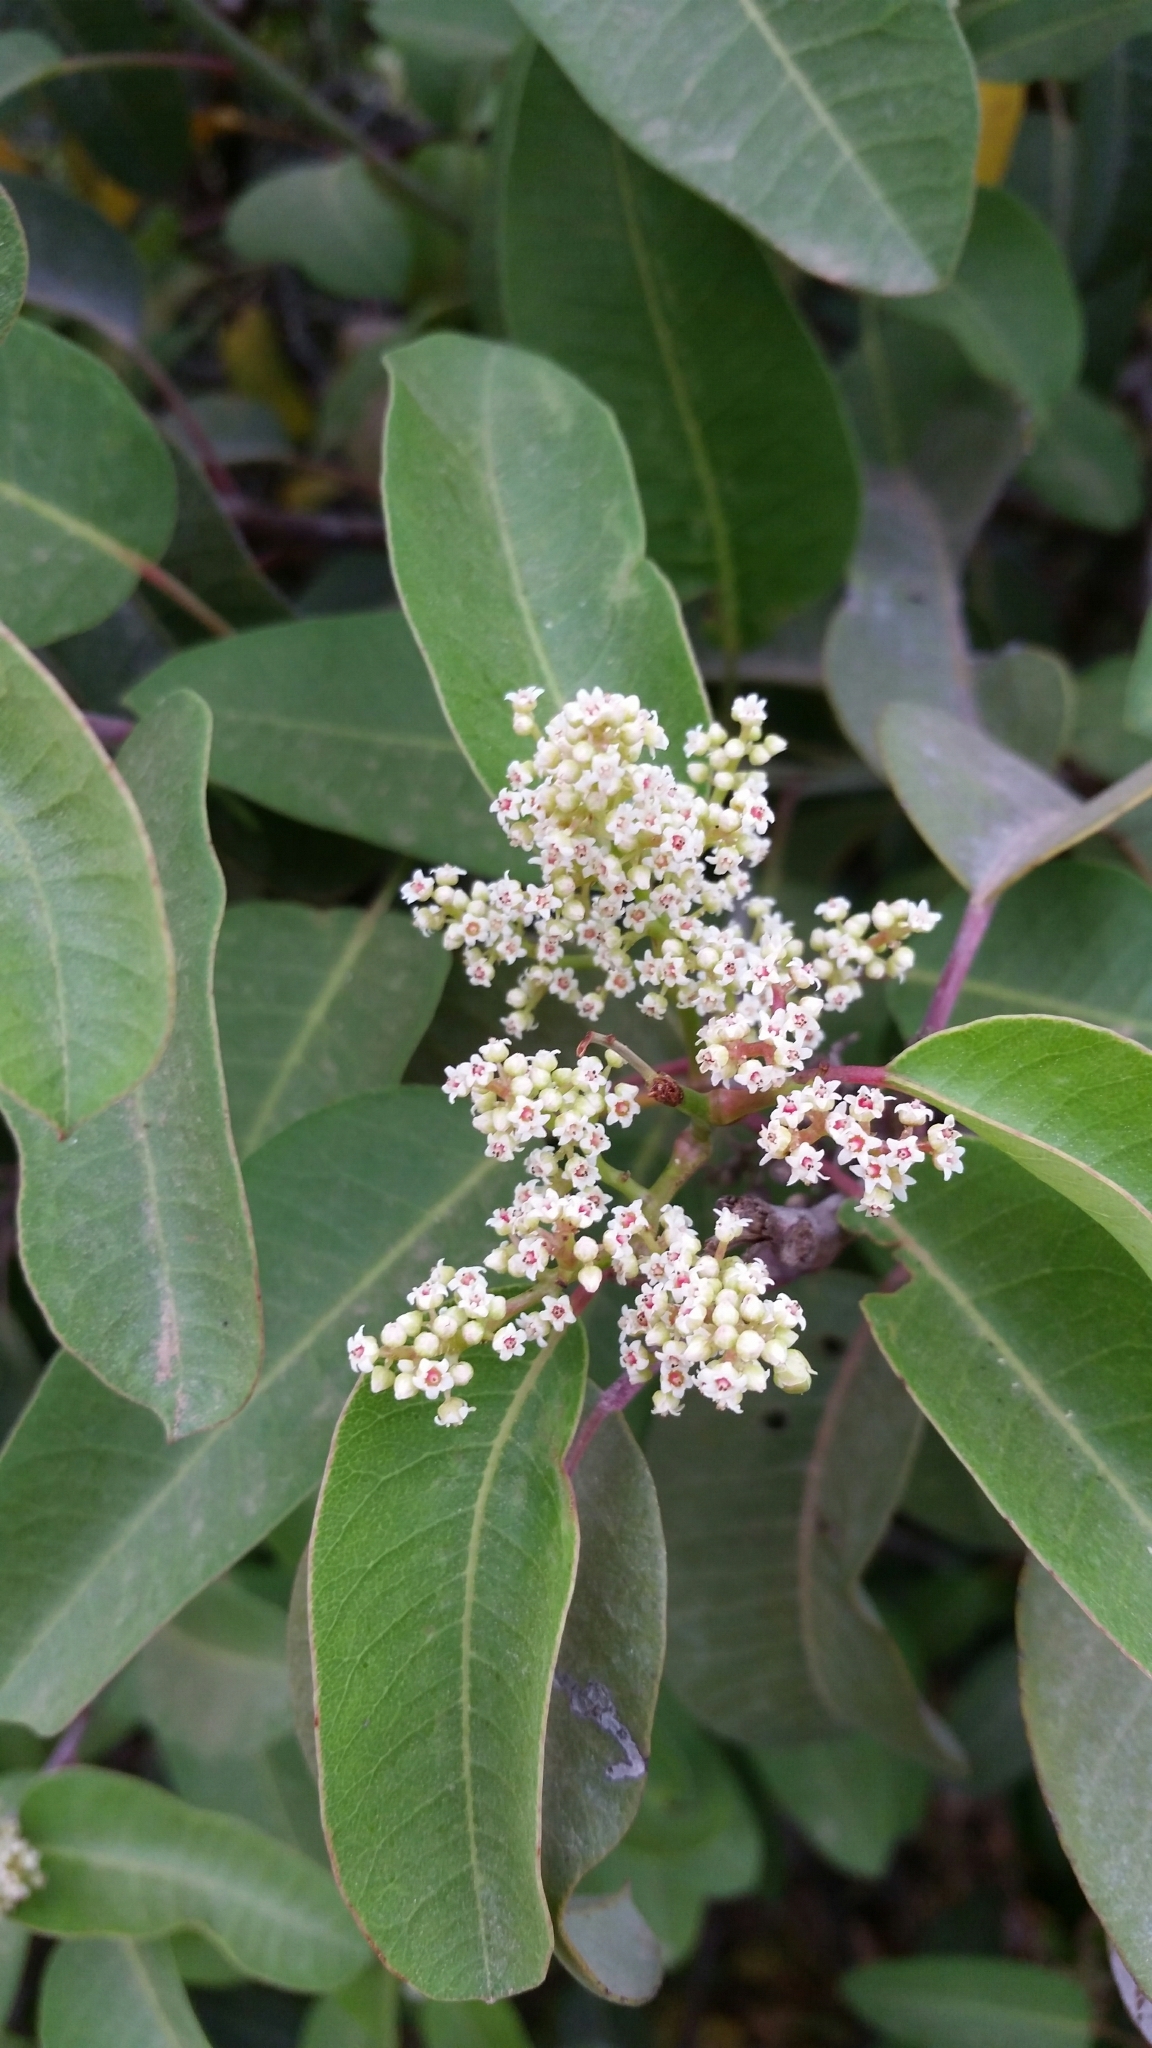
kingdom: Plantae
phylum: Tracheophyta
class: Magnoliopsida
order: Sapindales
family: Anacardiaceae
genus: Malosma
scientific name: Malosma laurina
